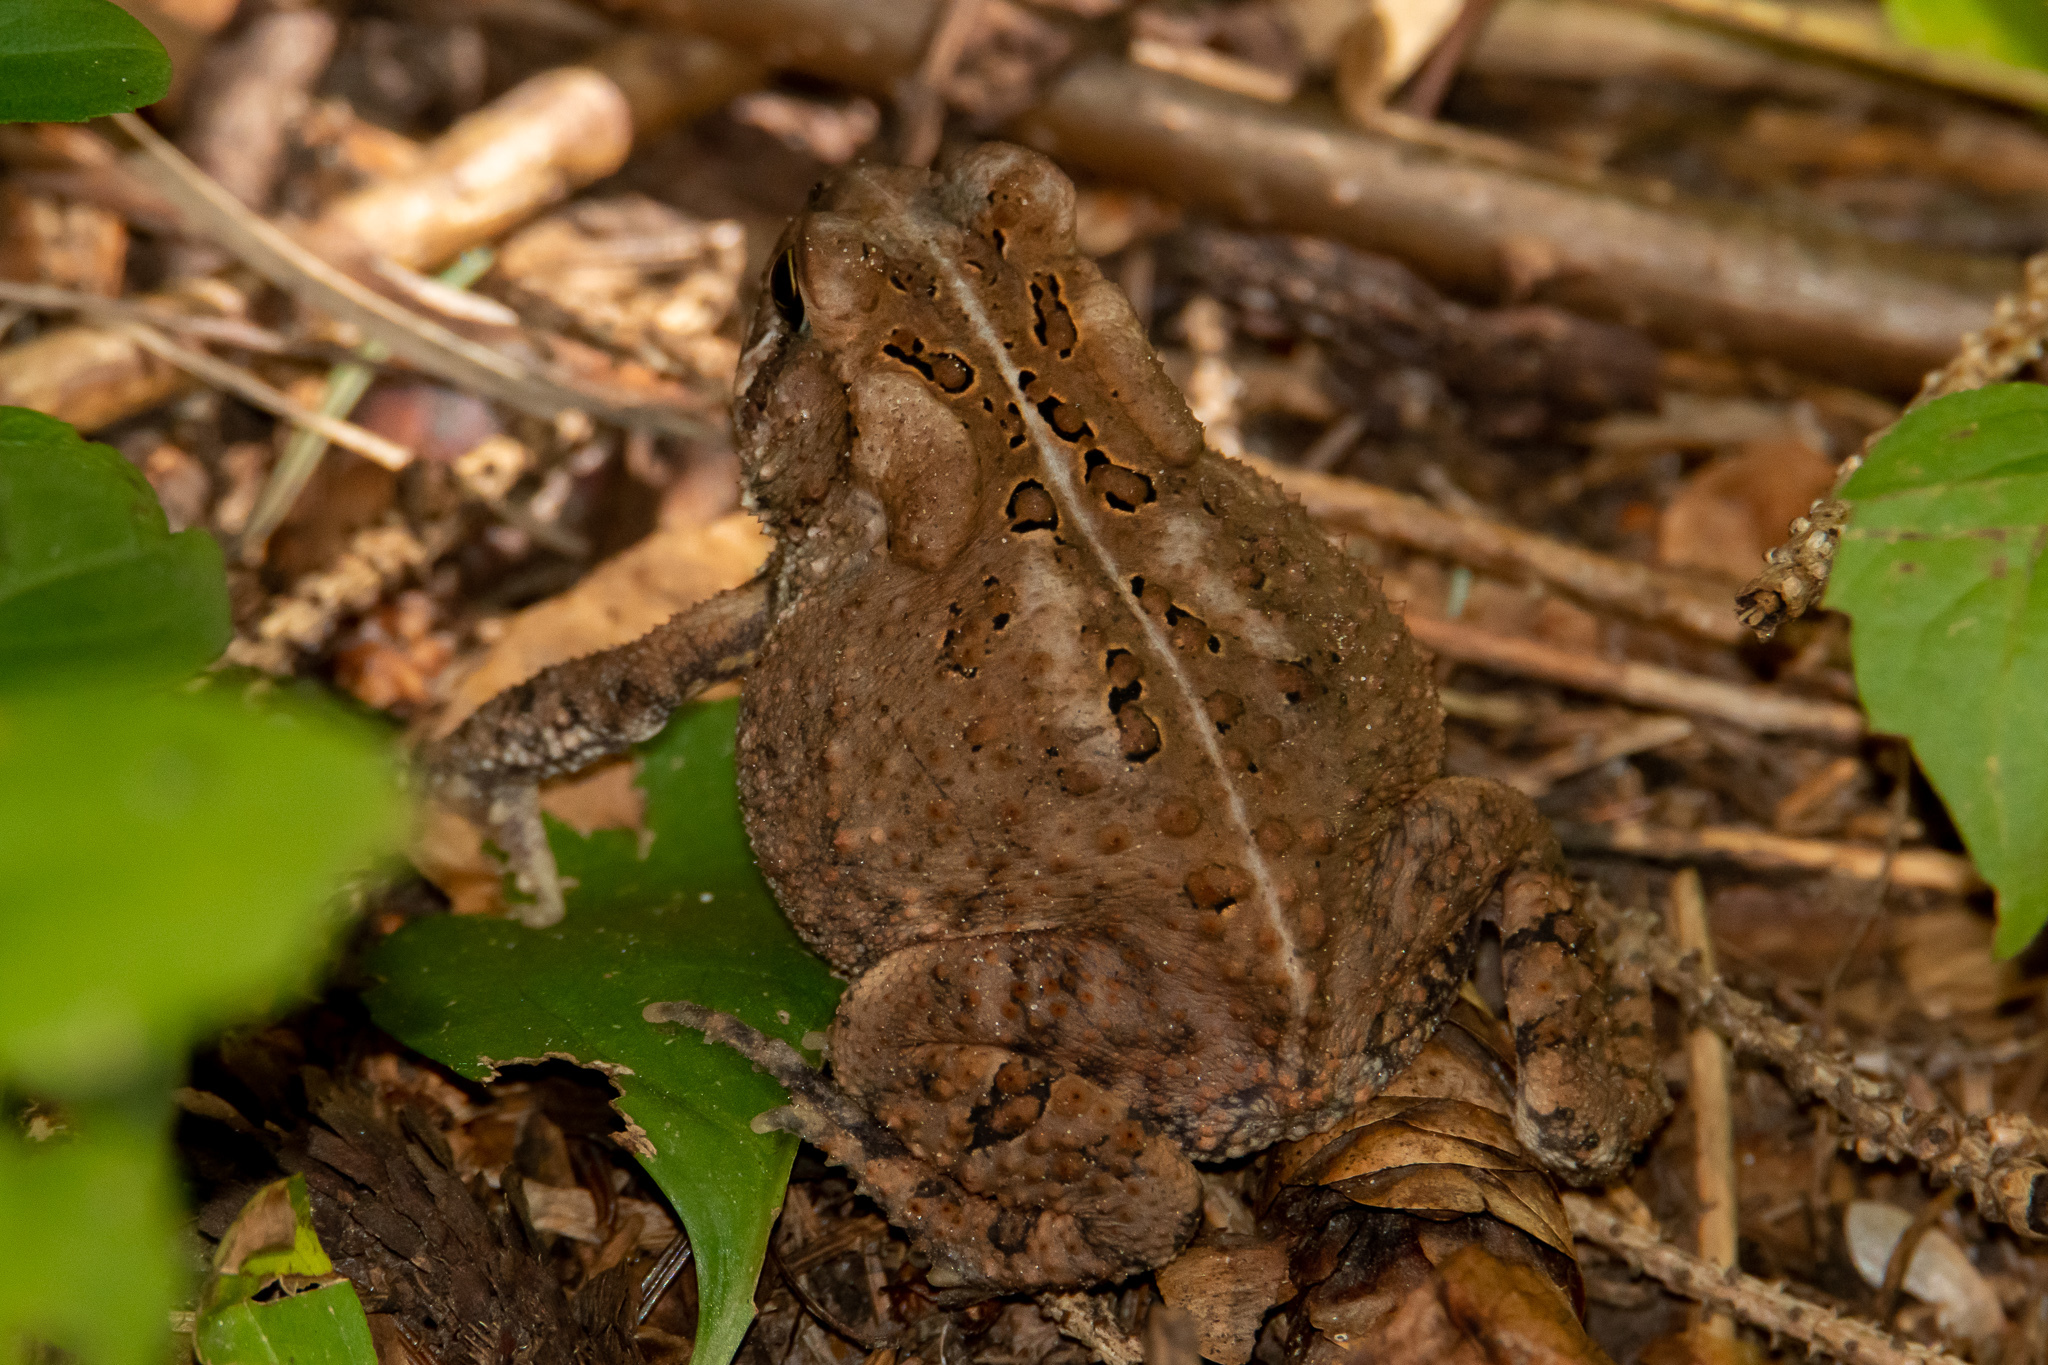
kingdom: Animalia
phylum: Chordata
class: Amphibia
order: Anura
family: Bufonidae
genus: Anaxyrus
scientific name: Anaxyrus americanus
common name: American toad
